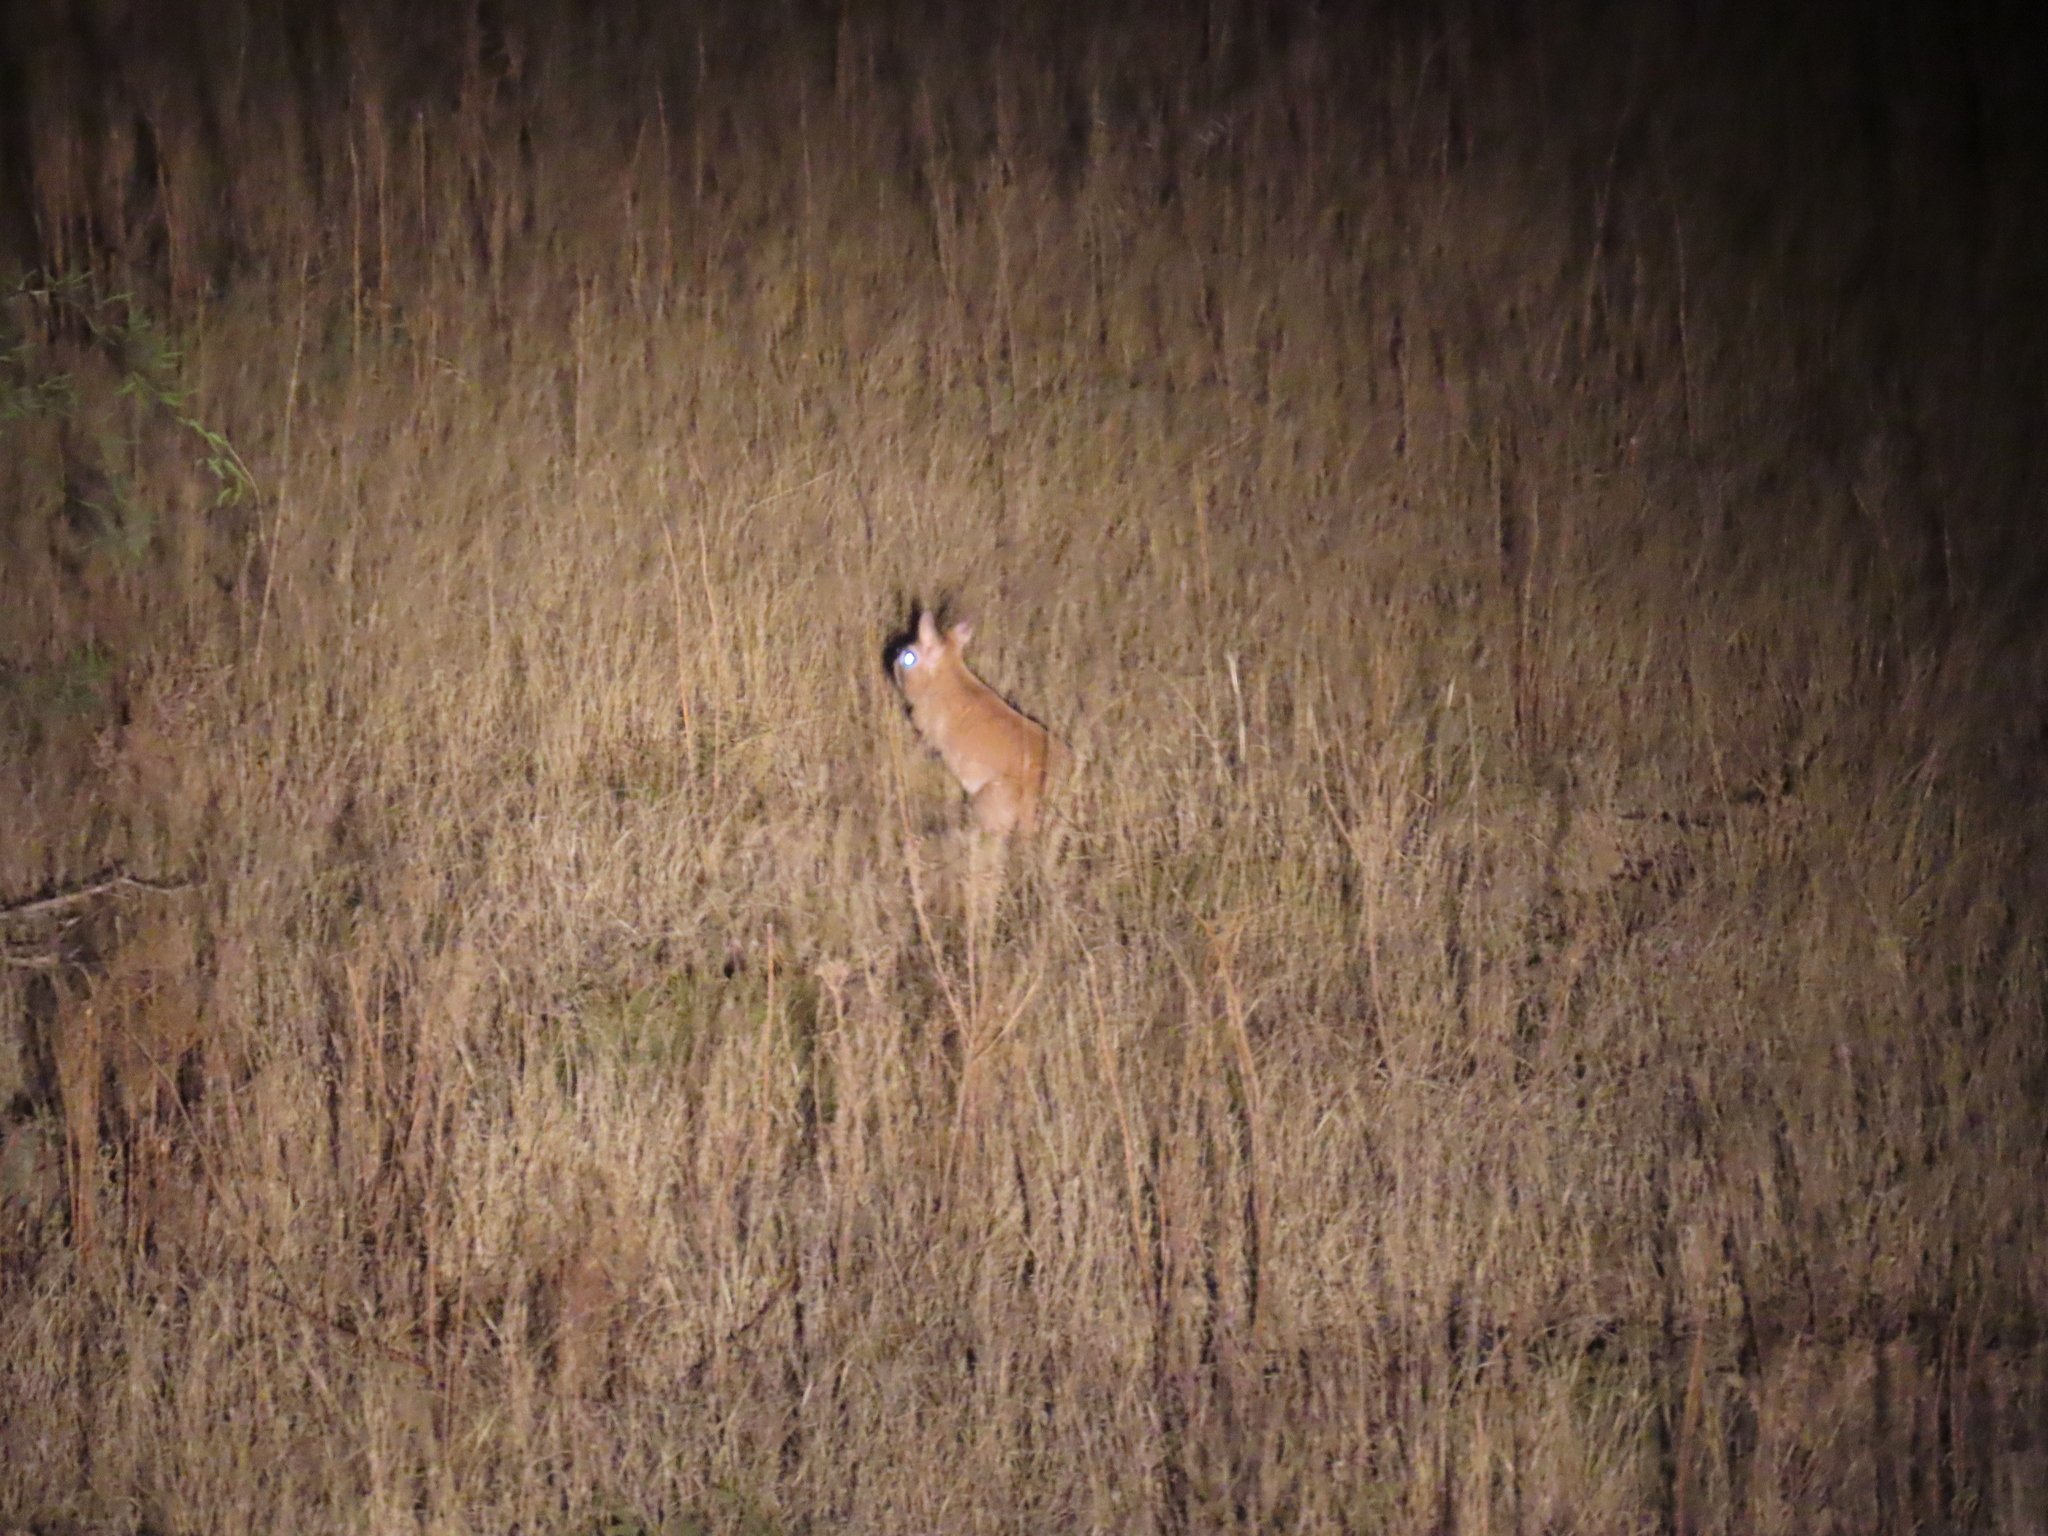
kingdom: Animalia
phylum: Chordata
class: Mammalia
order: Rodentia
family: Pedetidae
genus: Pedetes
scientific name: Pedetes capensis
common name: South african spring hare
